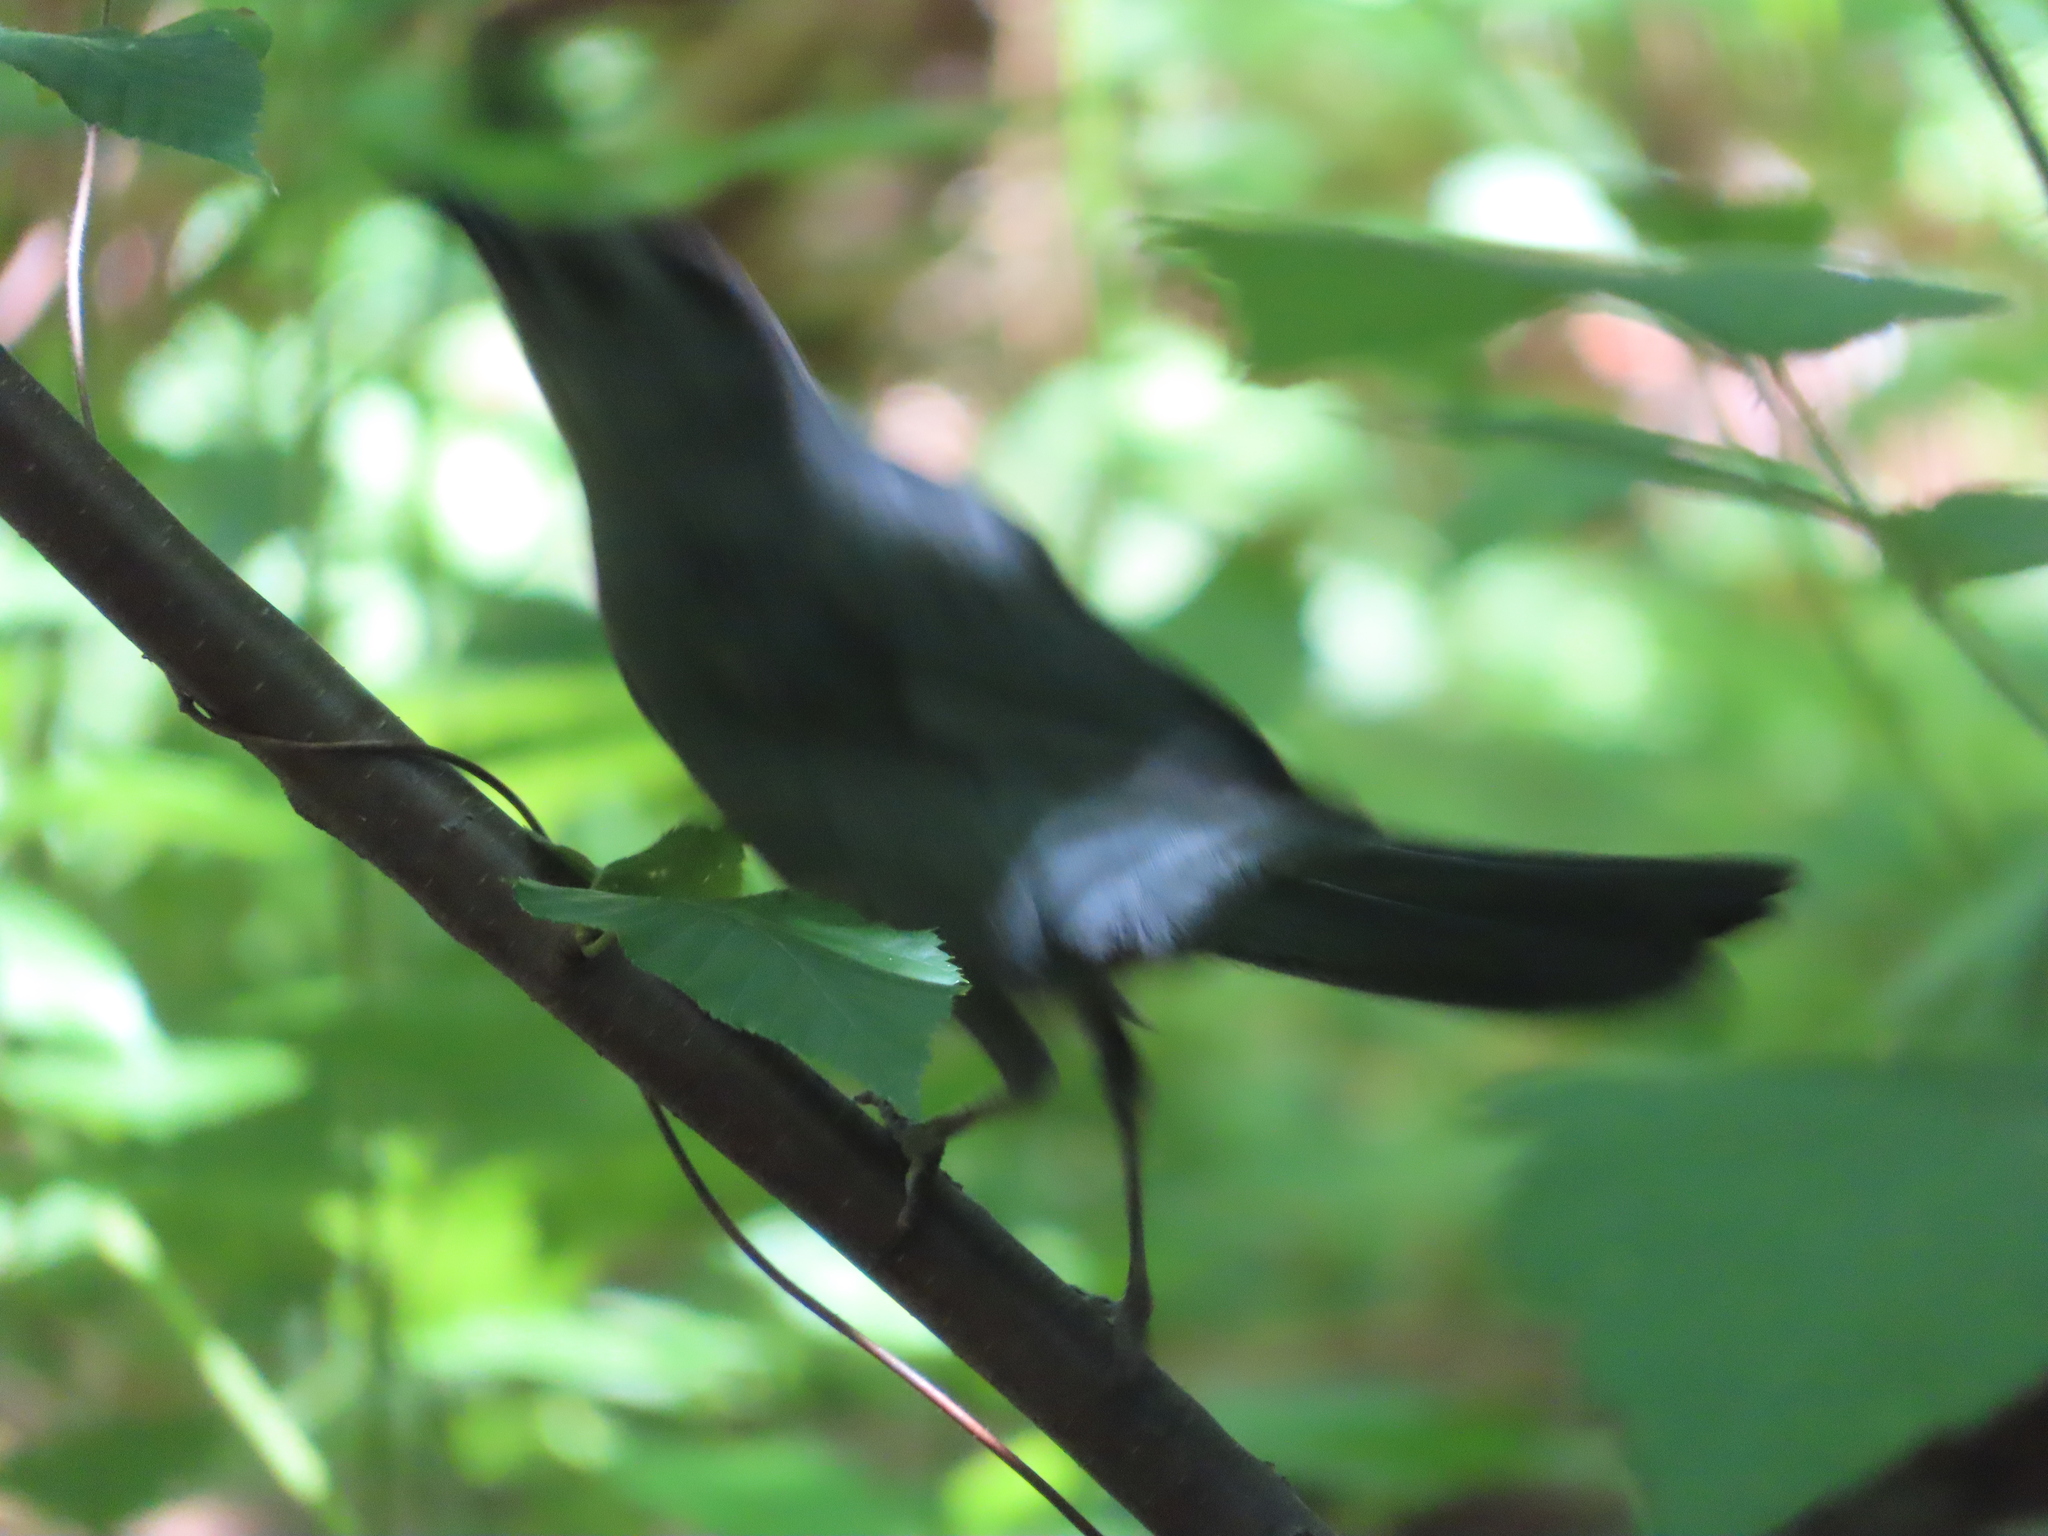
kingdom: Animalia
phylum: Chordata
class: Aves
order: Passeriformes
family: Mimidae
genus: Dumetella
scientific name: Dumetella carolinensis
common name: Gray catbird
